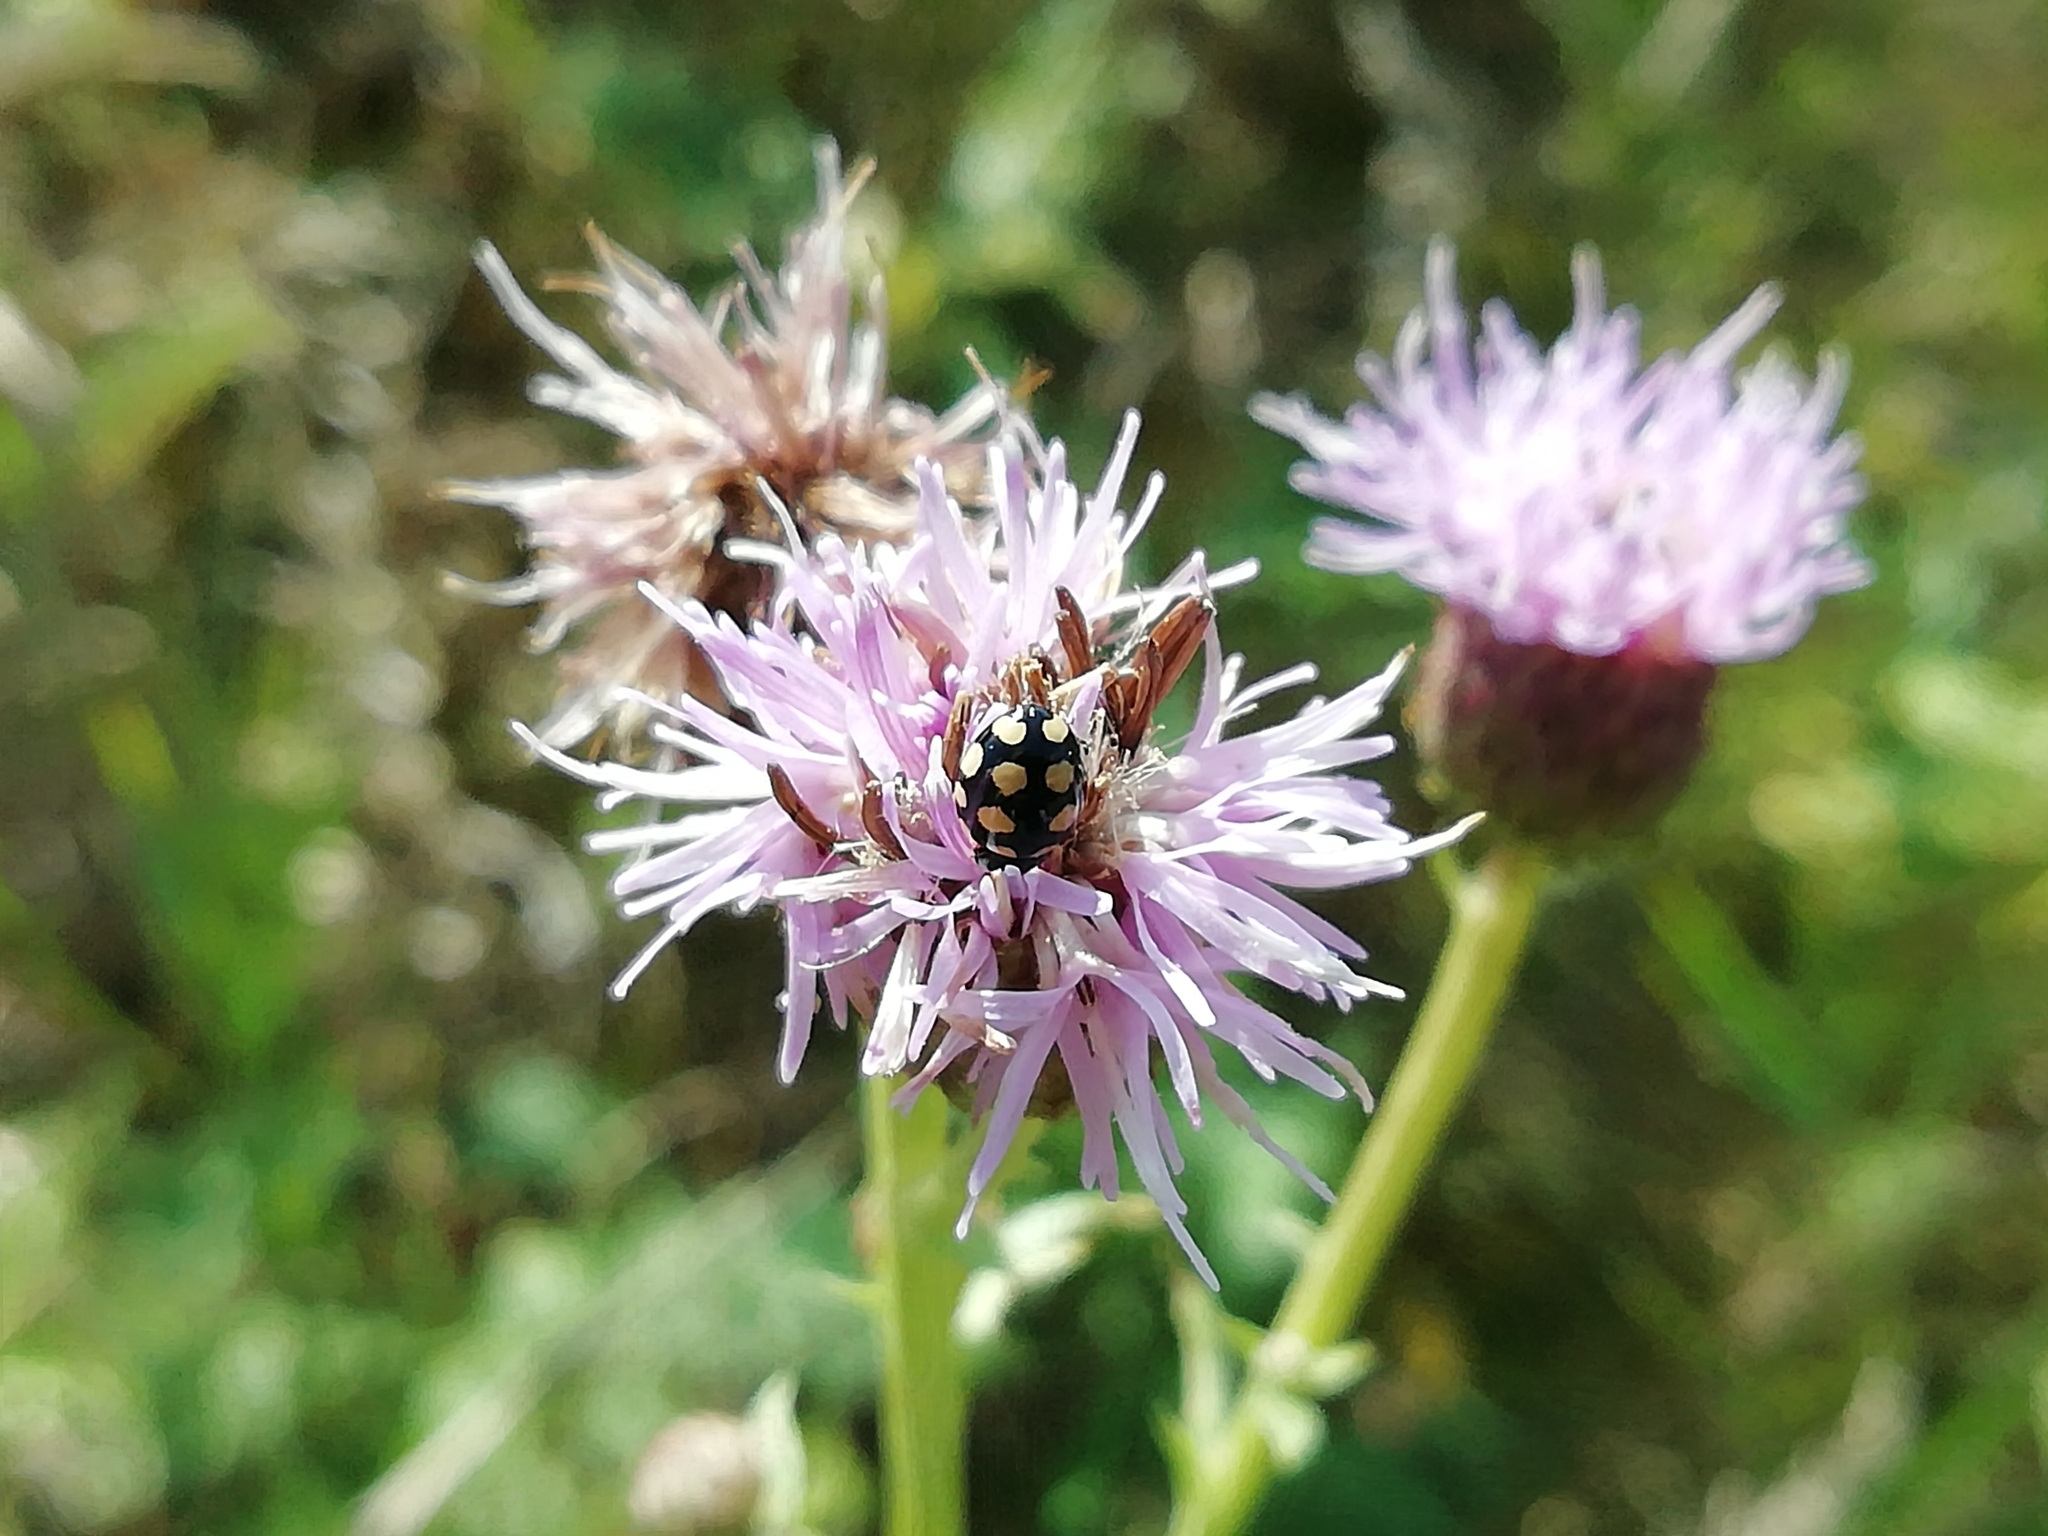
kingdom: Animalia
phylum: Arthropoda
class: Insecta
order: Coleoptera
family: Coccinellidae
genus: Coccinula
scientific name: Coccinula quatuordecimpustulata
